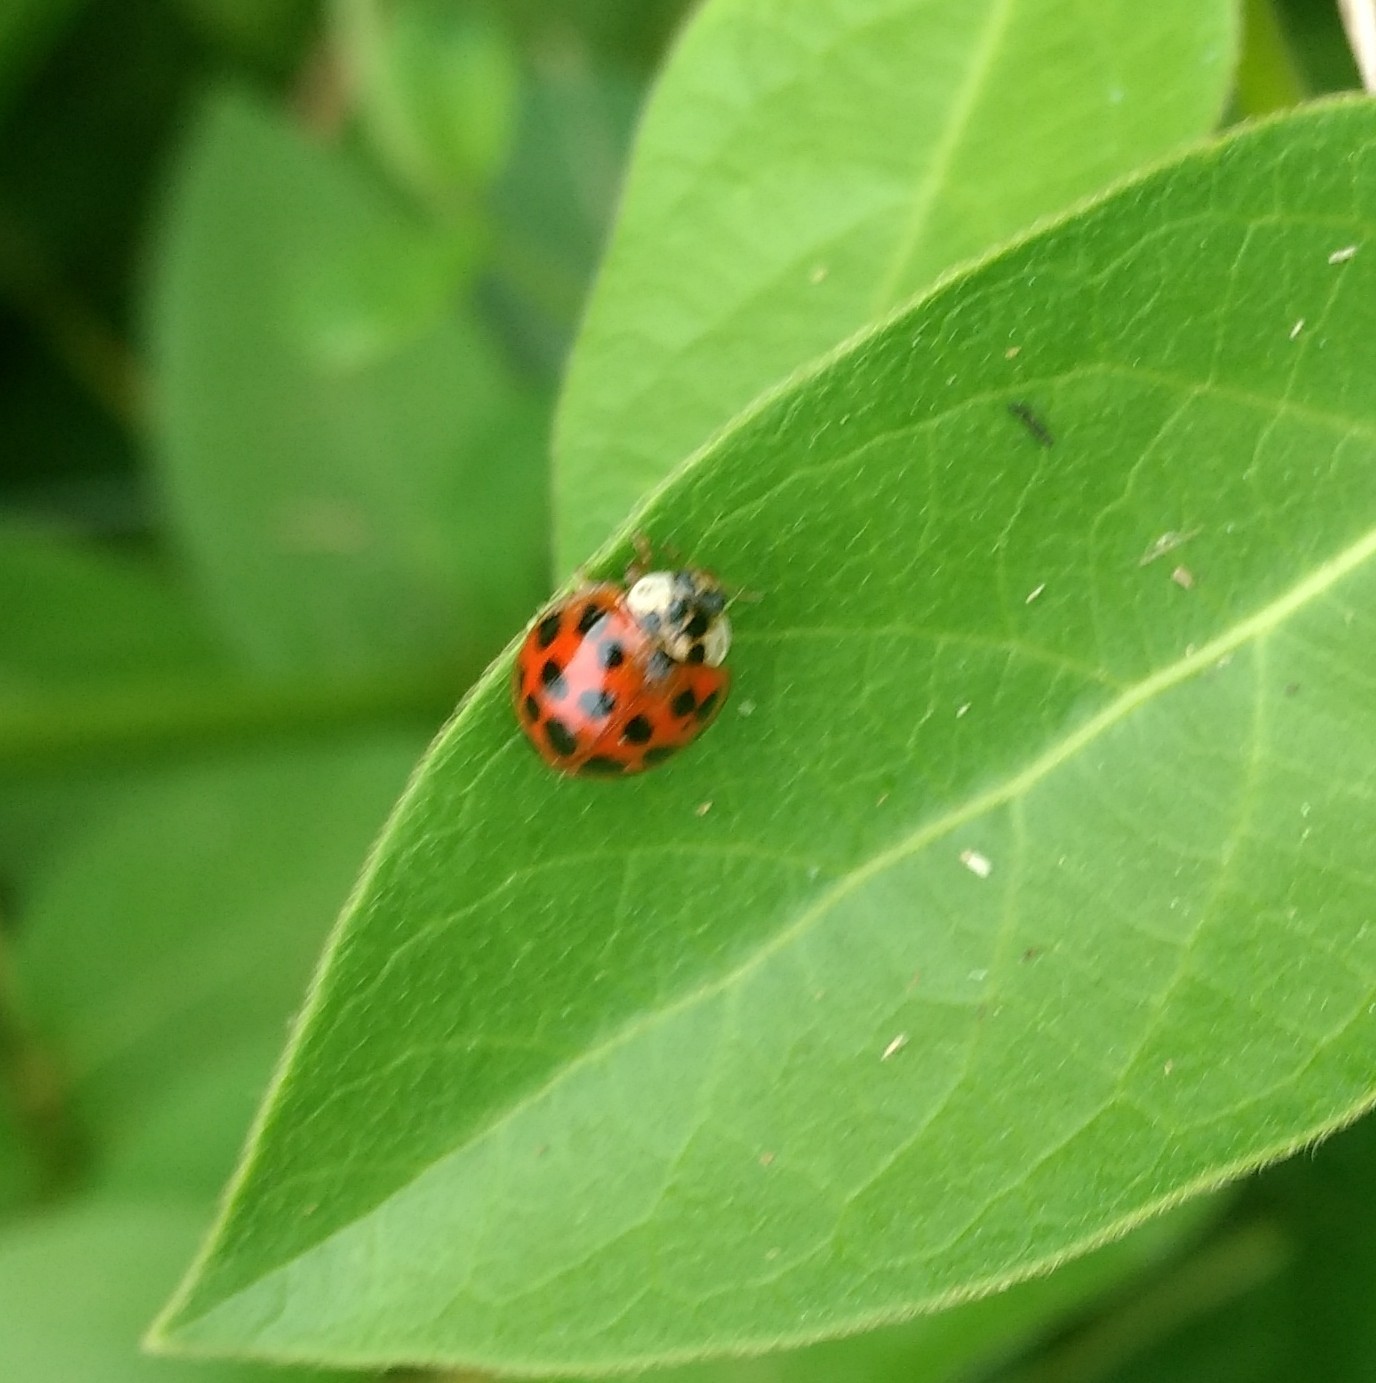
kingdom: Animalia
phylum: Arthropoda
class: Insecta
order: Coleoptera
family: Coccinellidae
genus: Harmonia
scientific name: Harmonia axyridis
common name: Harlequin ladybird
